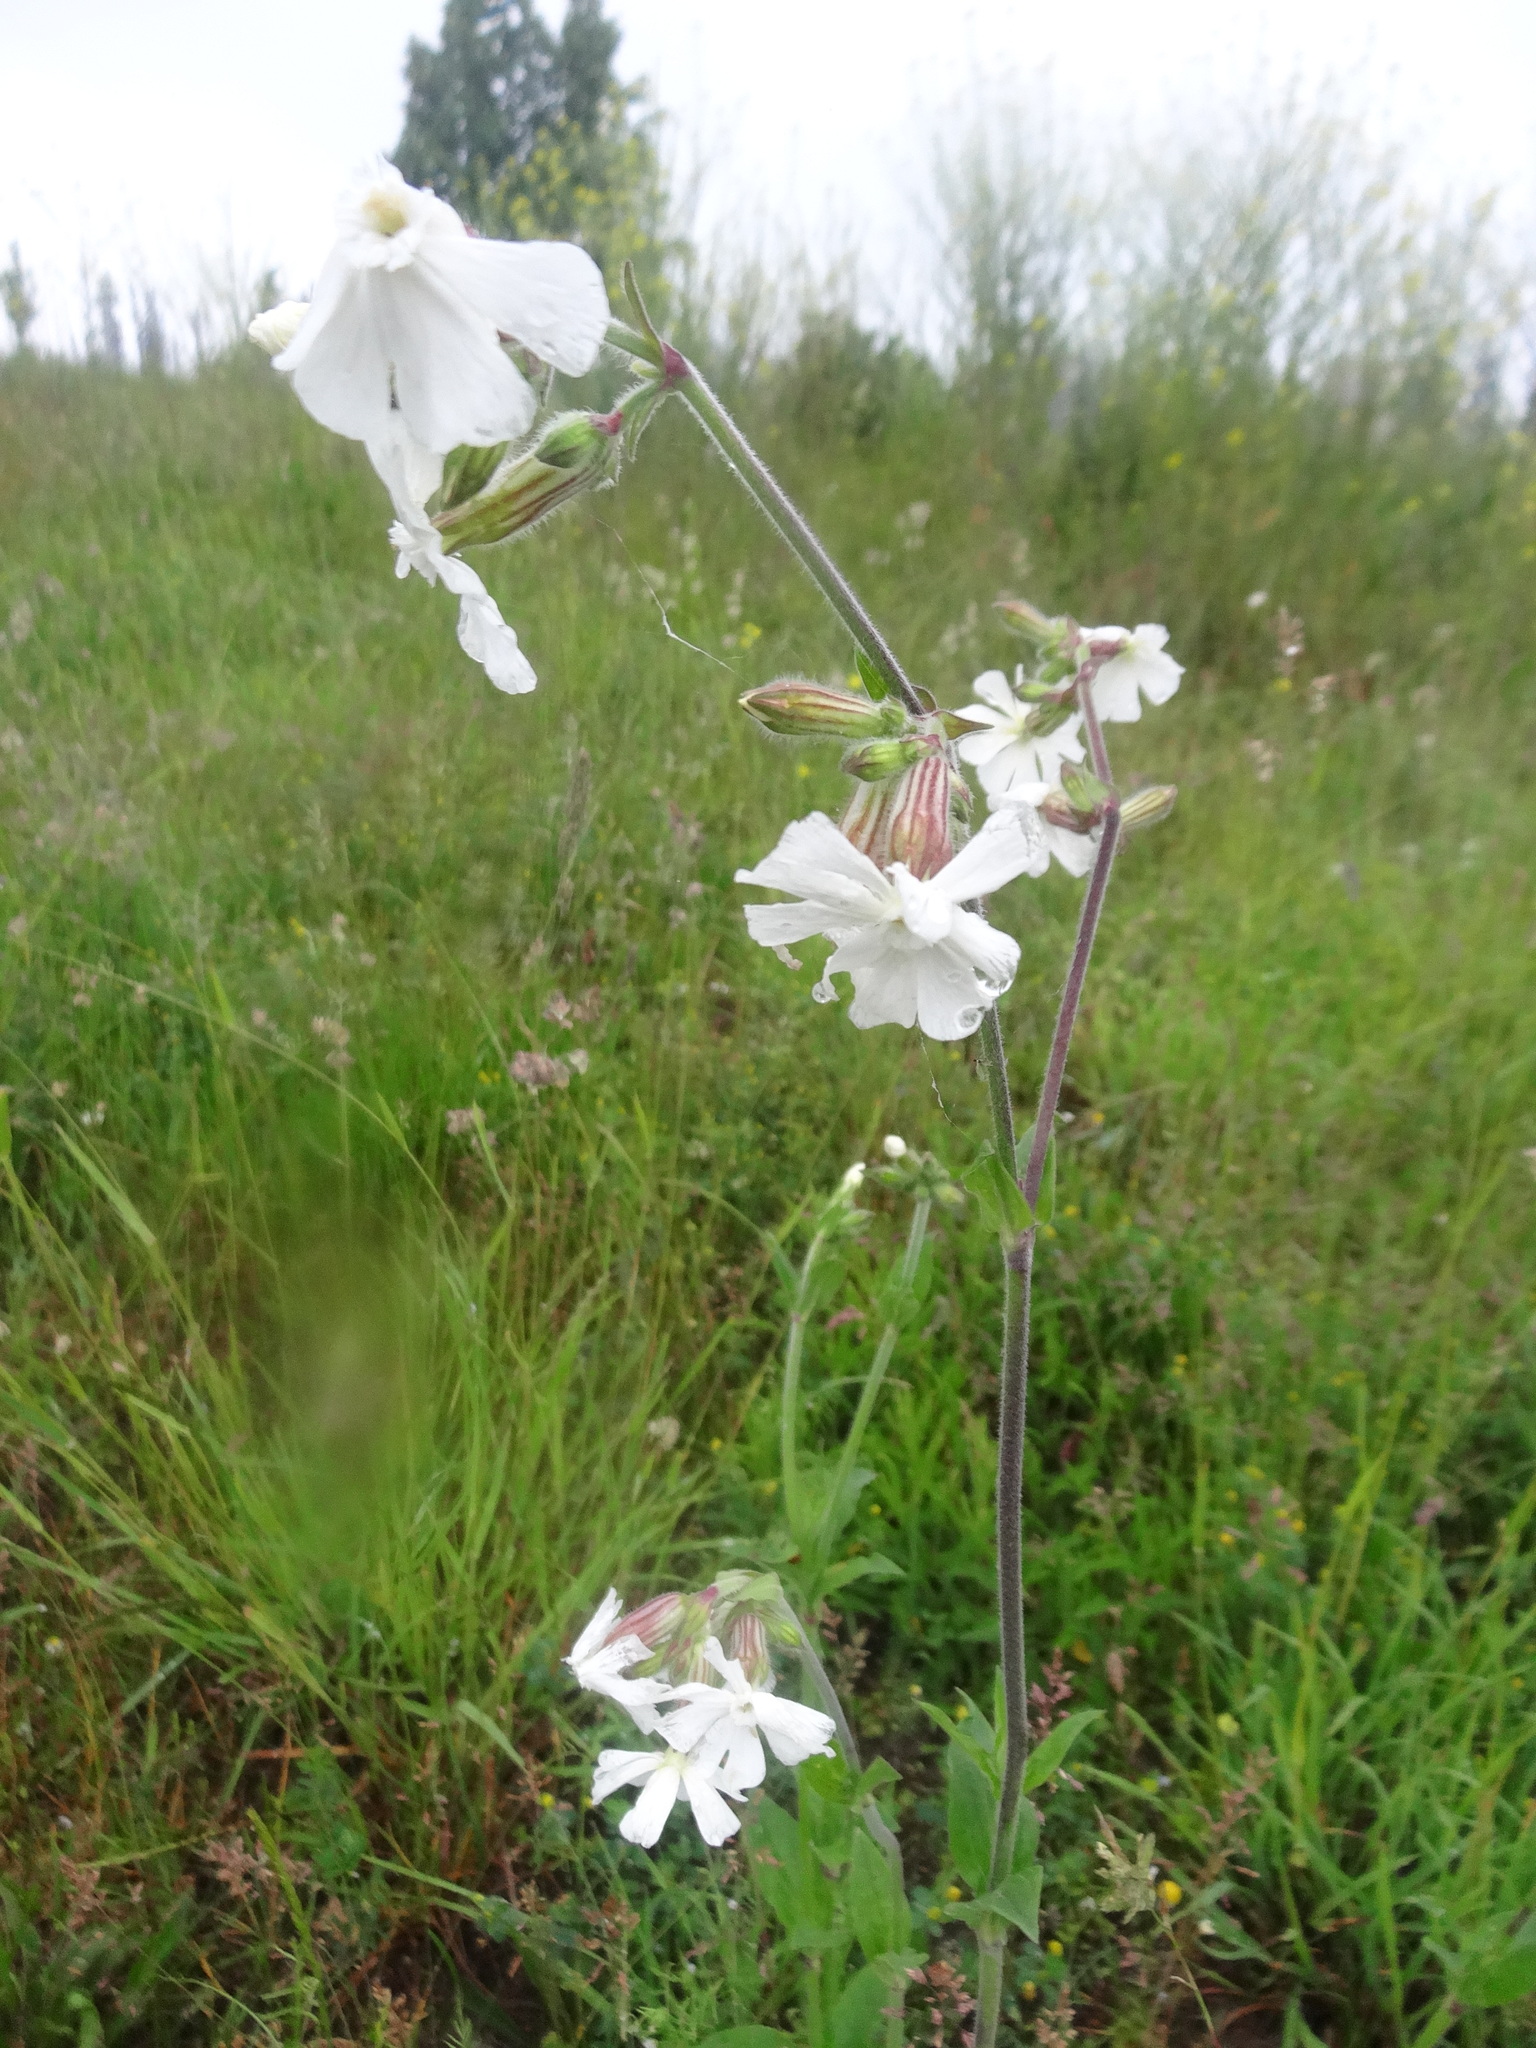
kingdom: Plantae
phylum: Tracheophyta
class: Magnoliopsida
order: Caryophyllales
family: Caryophyllaceae
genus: Silene
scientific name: Silene latifolia
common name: White campion
